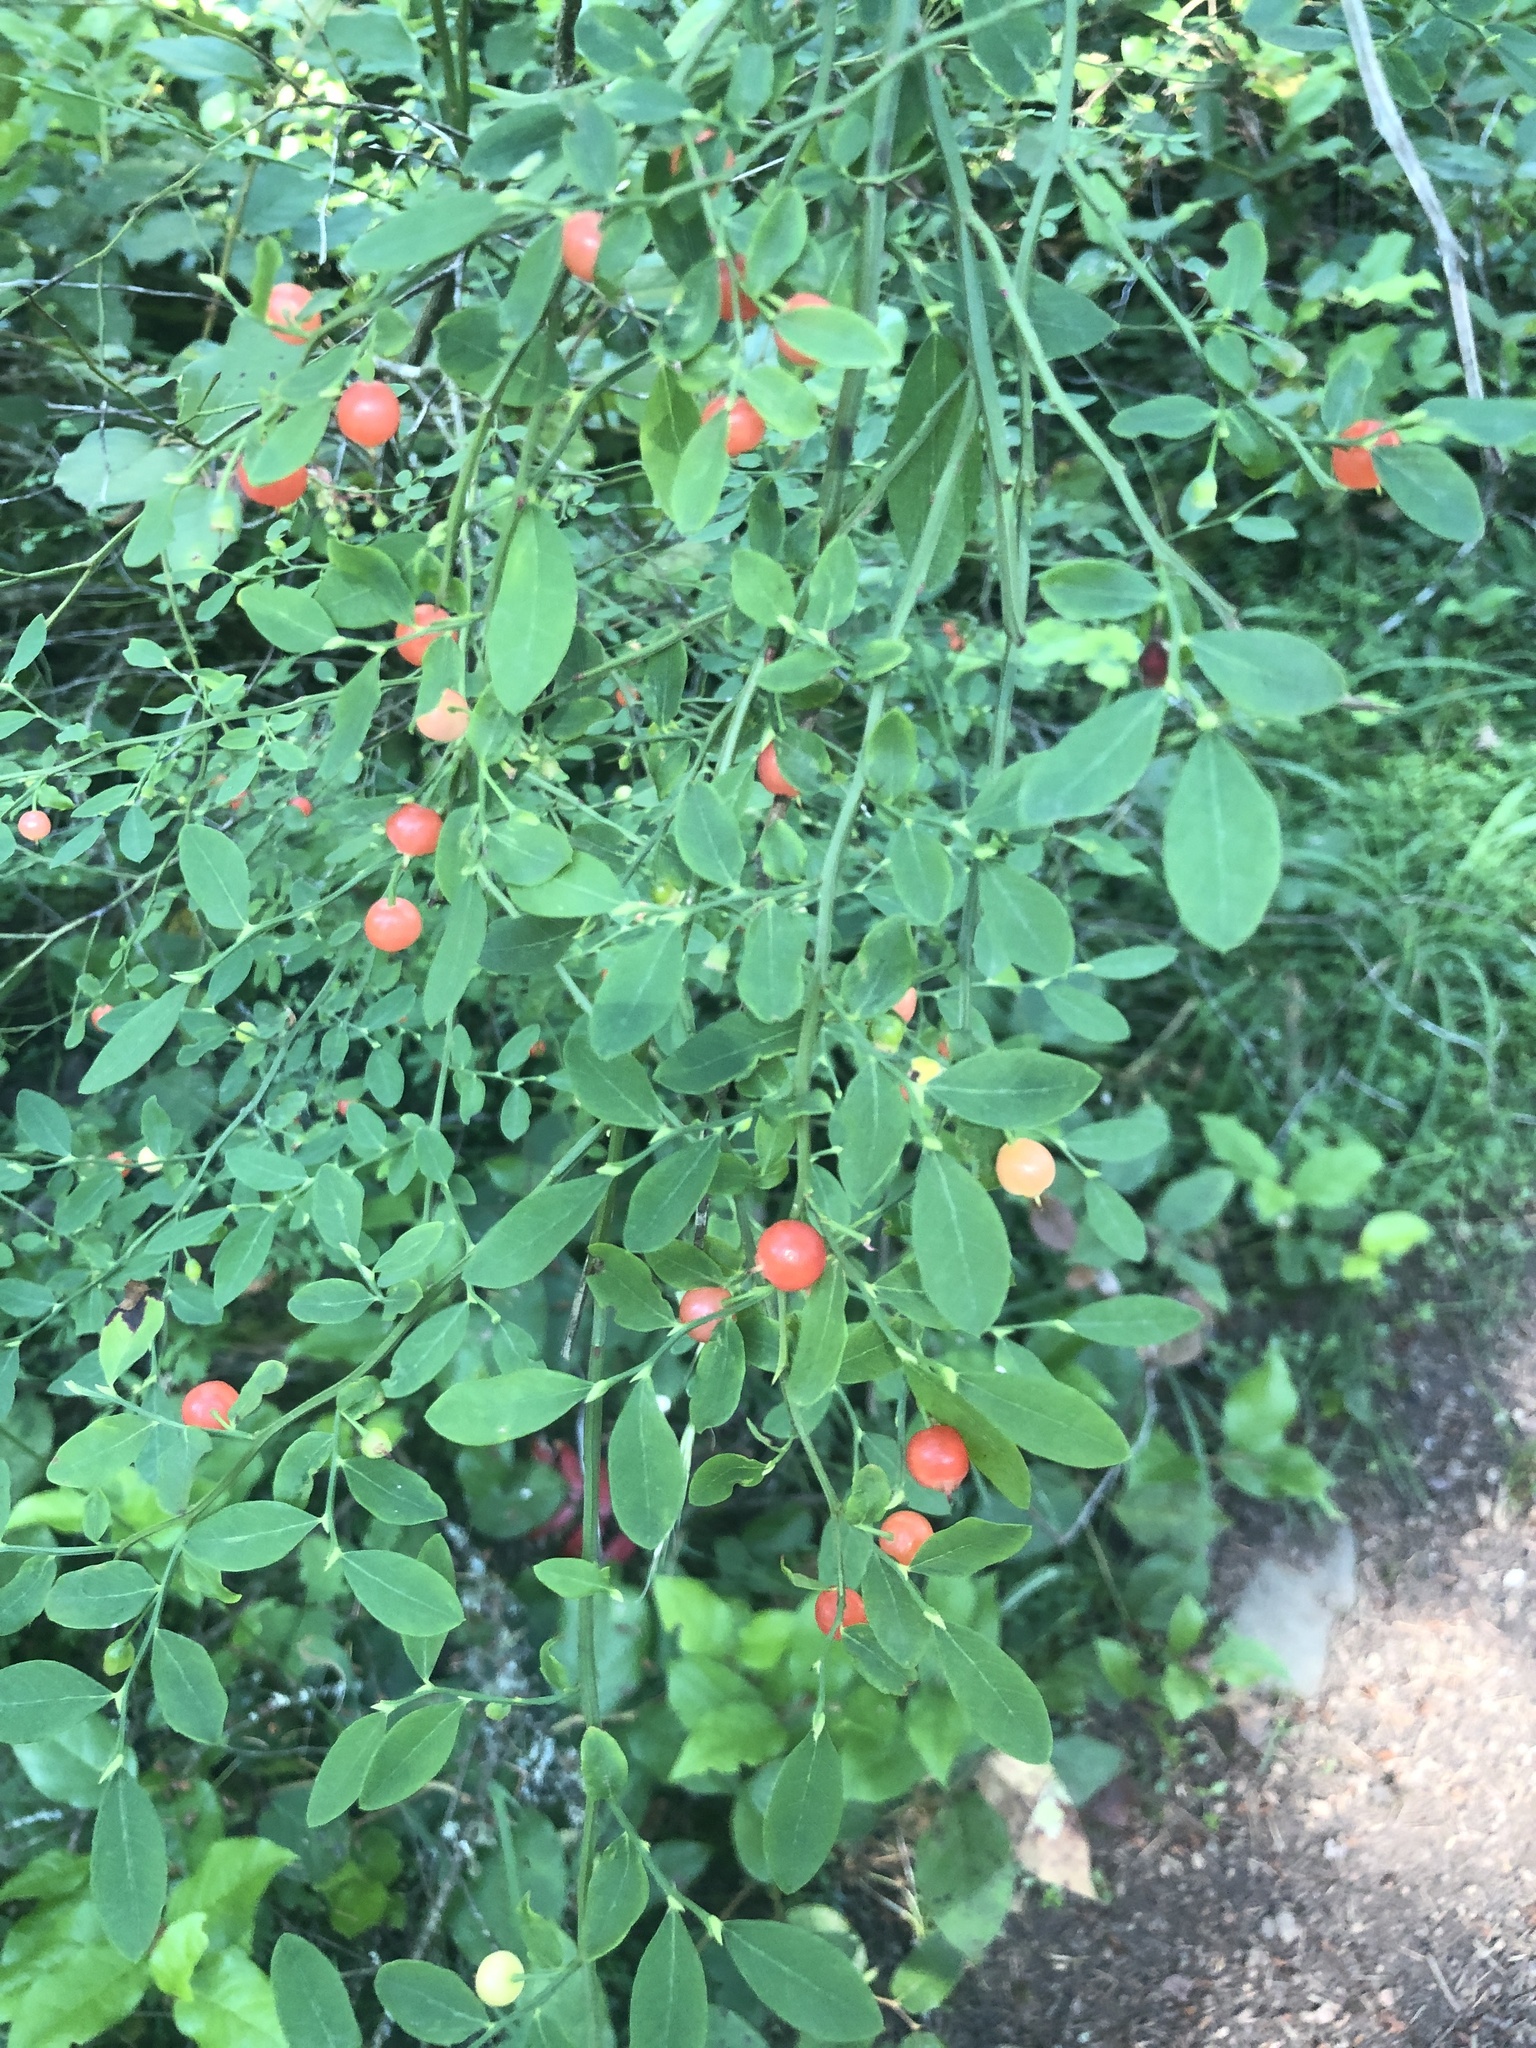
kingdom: Plantae
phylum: Tracheophyta
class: Magnoliopsida
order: Ericales
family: Ericaceae
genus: Vaccinium
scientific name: Vaccinium parvifolium
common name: Red-huckleberry
